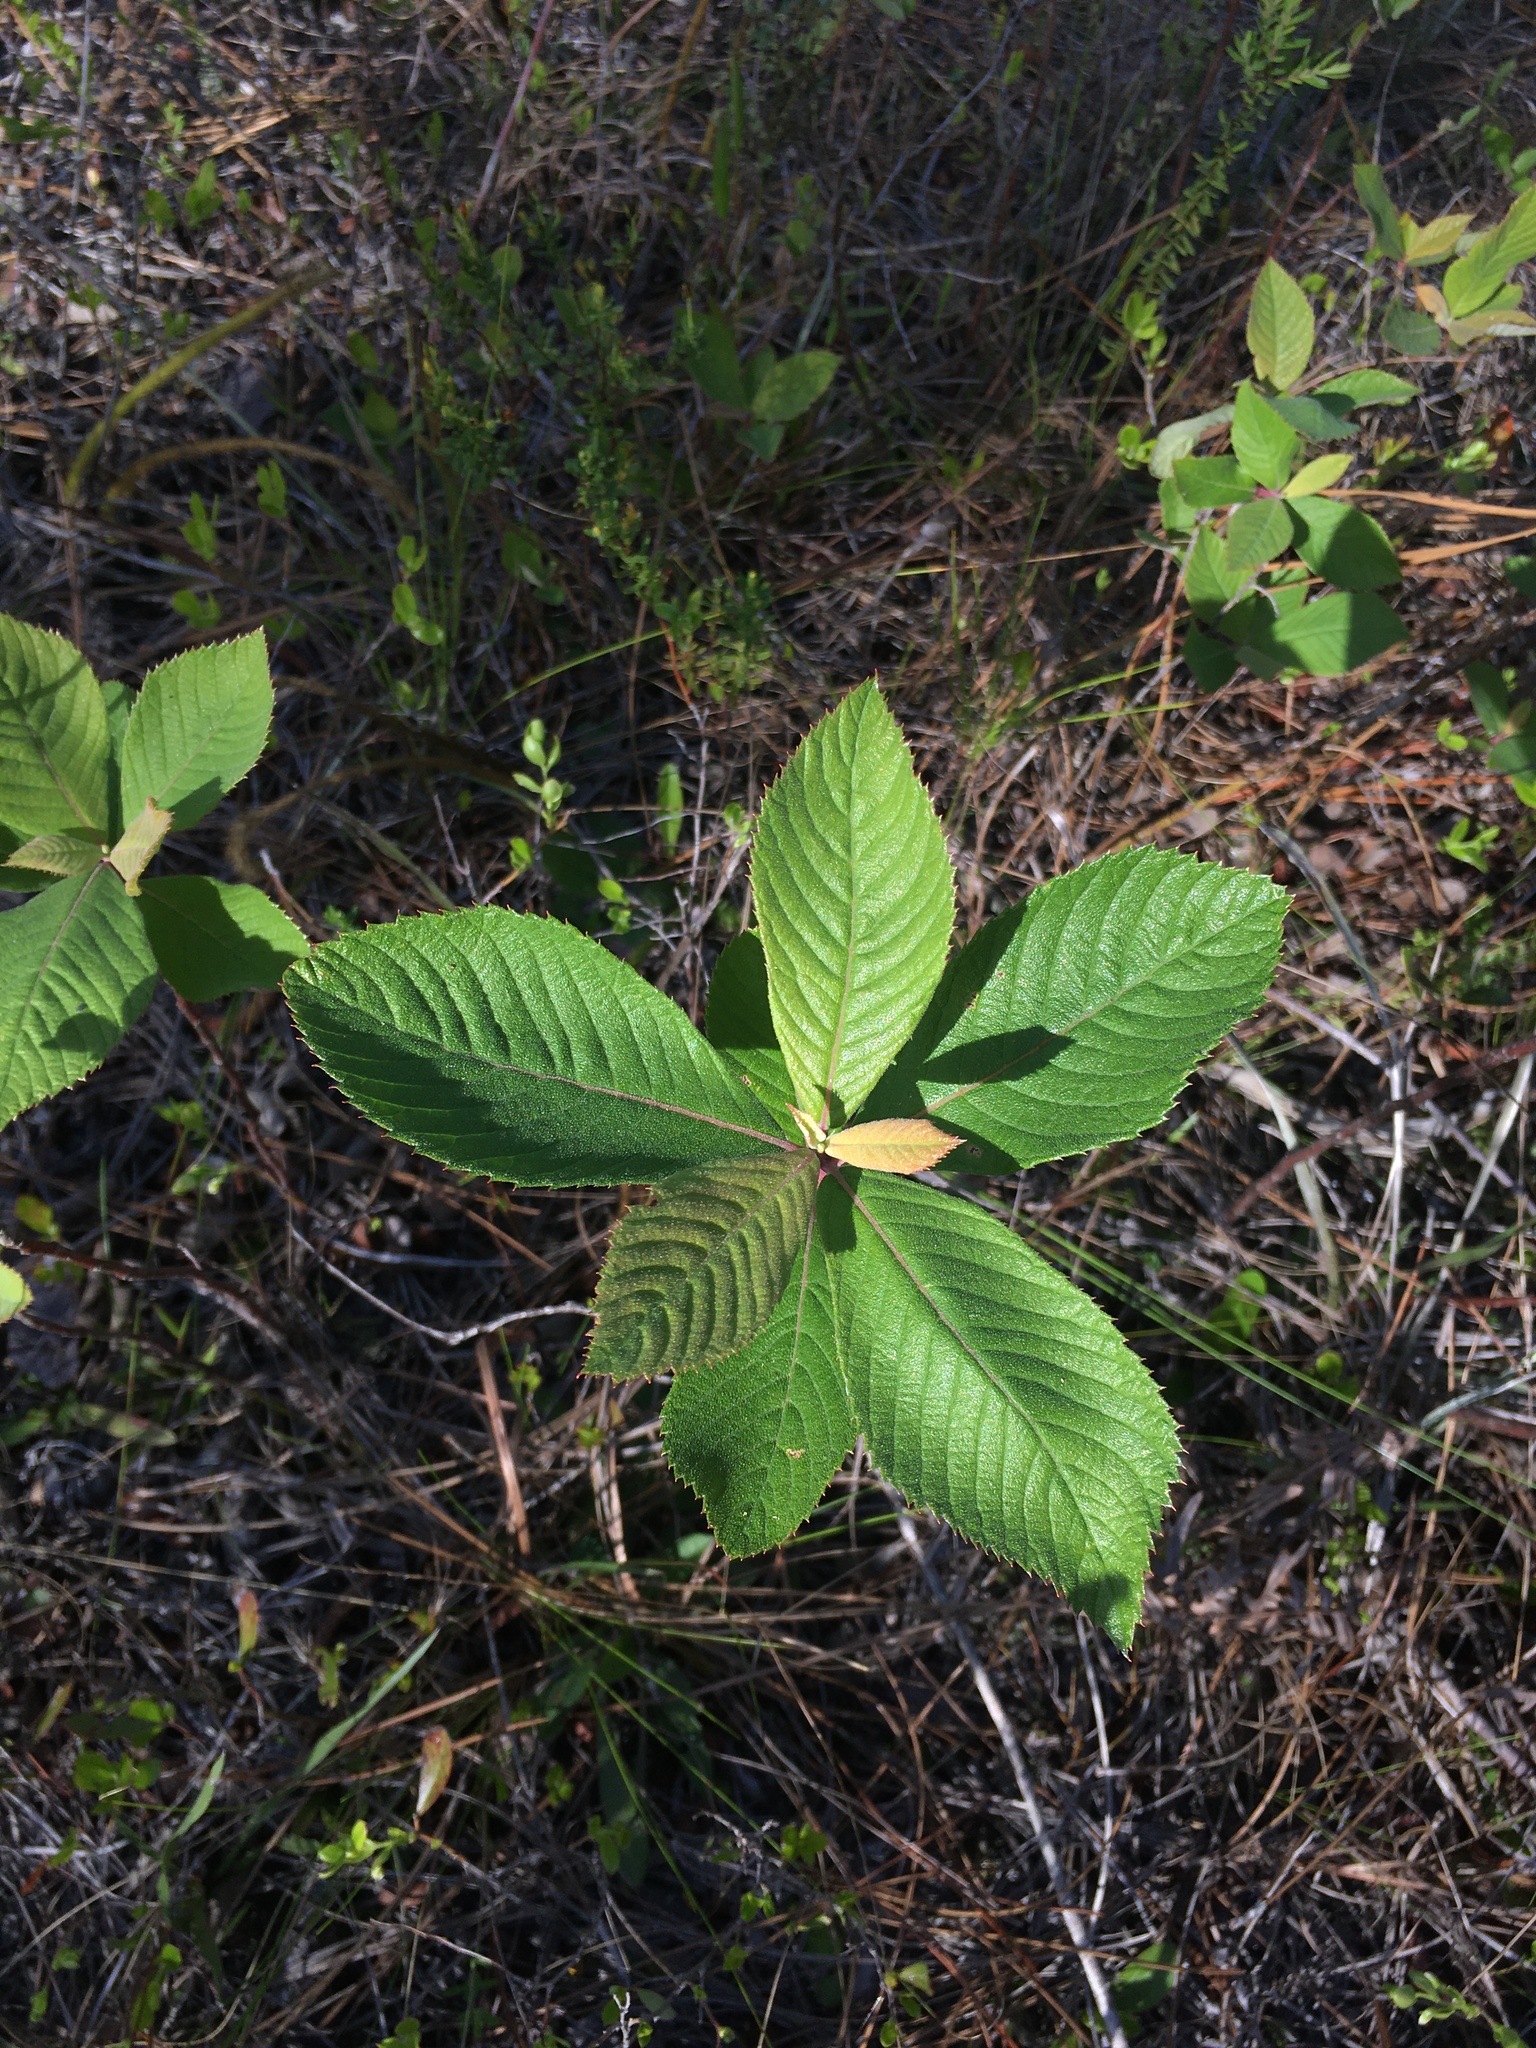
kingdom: Plantae
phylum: Tracheophyta
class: Magnoliopsida
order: Ericales
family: Clethraceae
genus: Clethra
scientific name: Clethra tomentosa
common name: Downy sweet pepperbush
